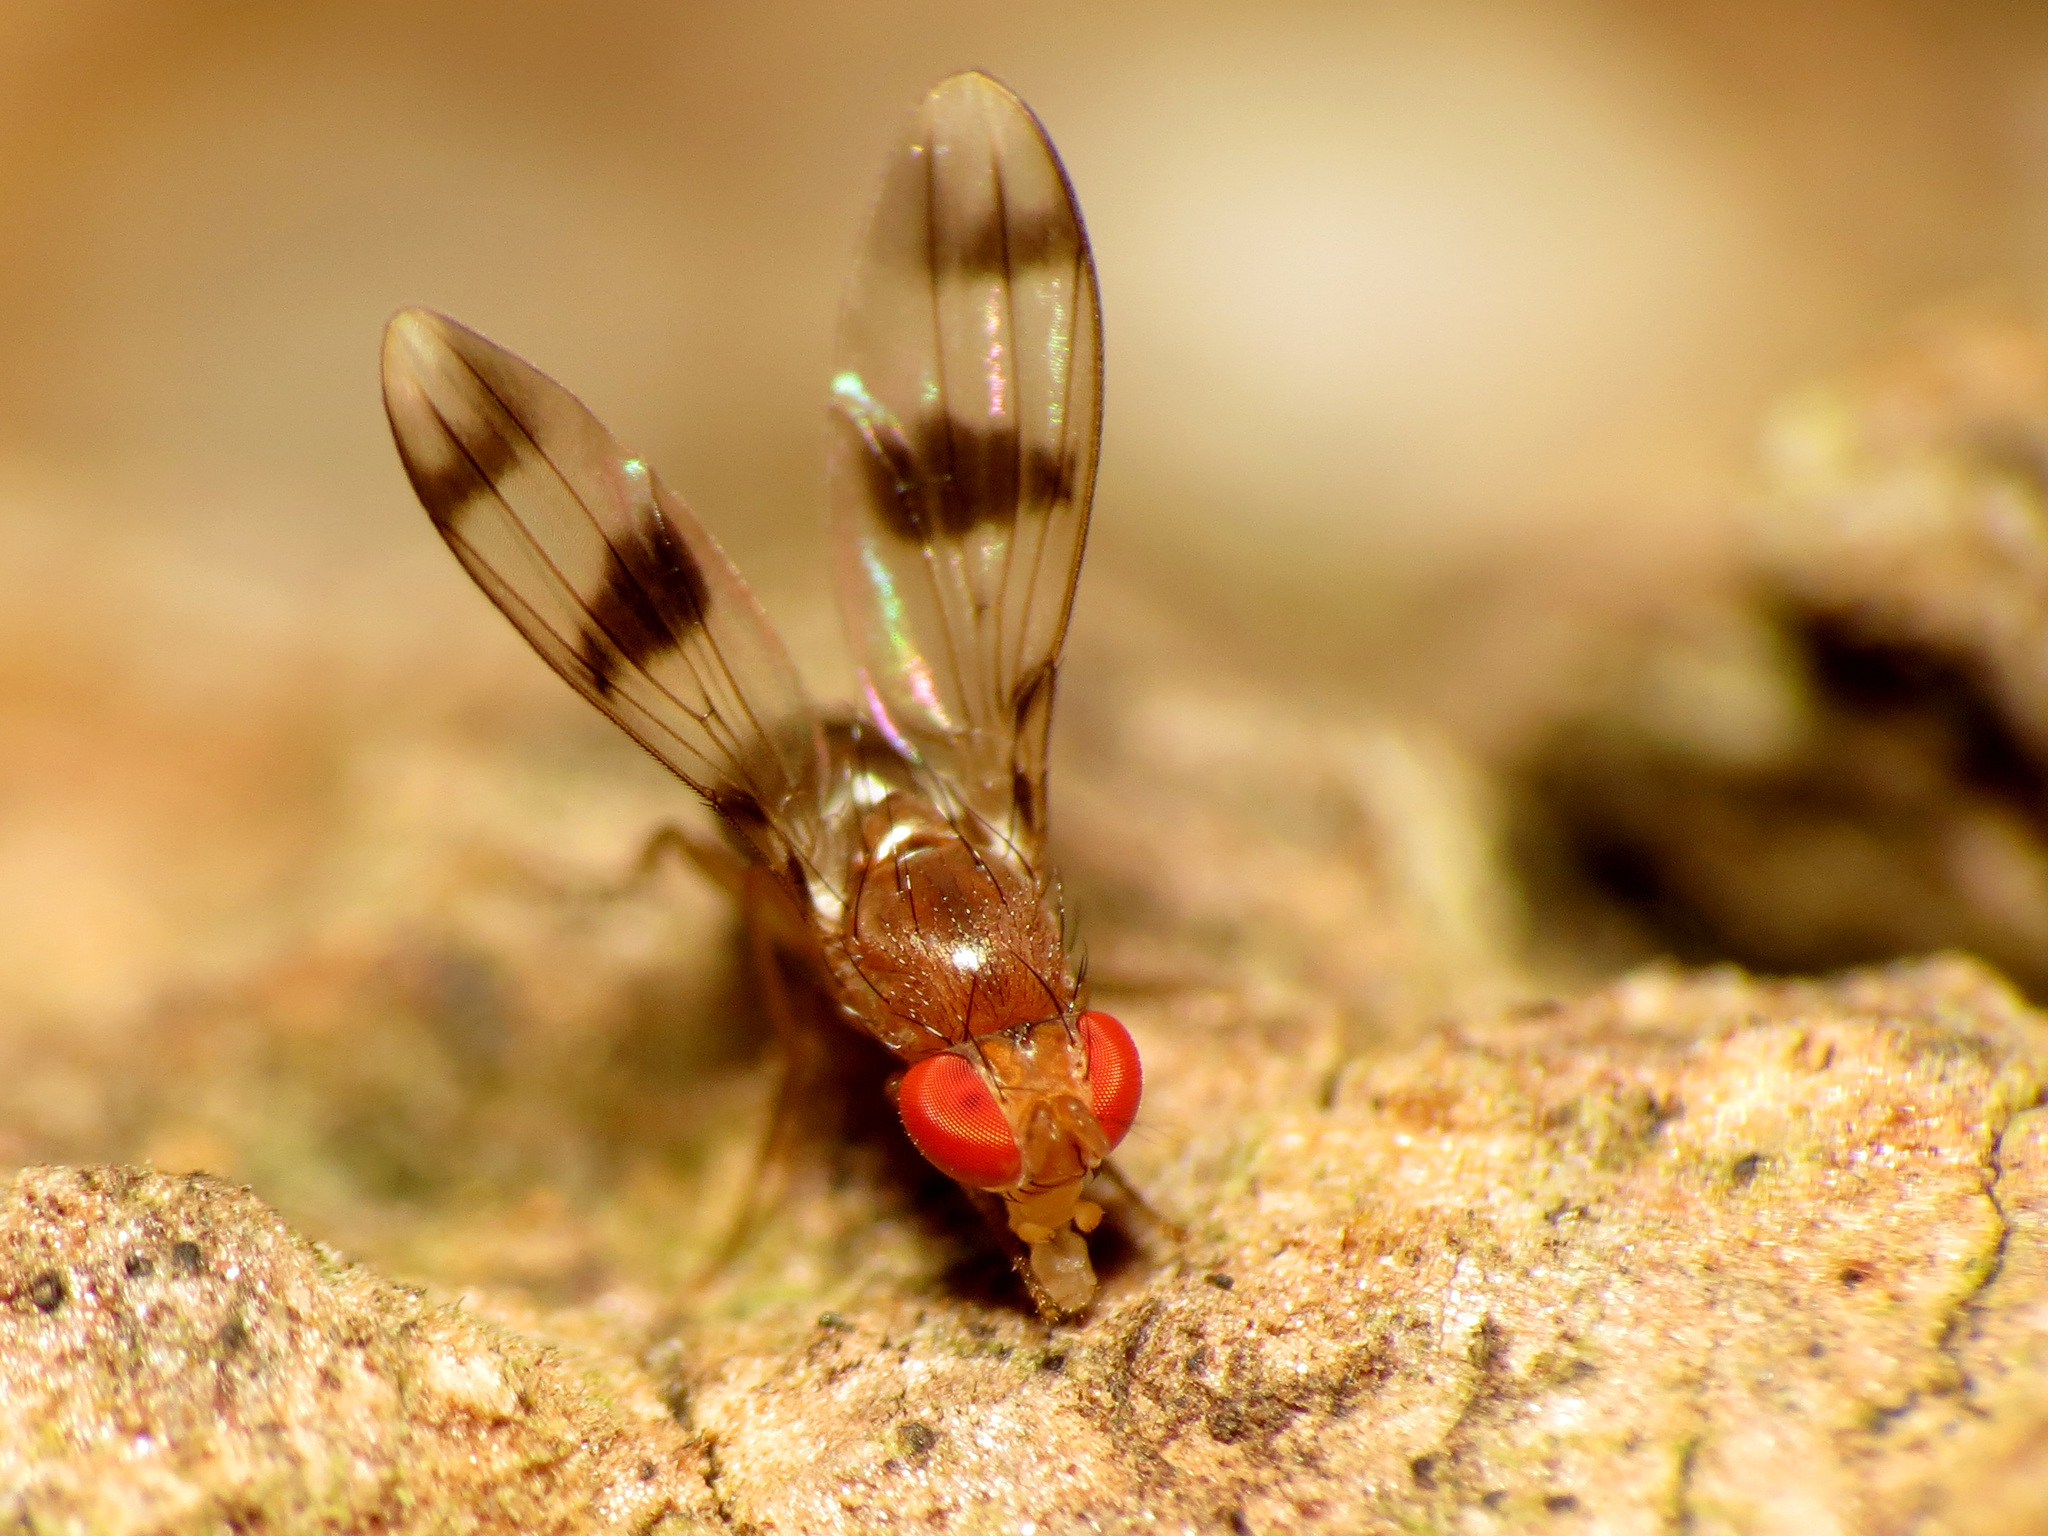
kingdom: Animalia
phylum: Arthropoda
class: Insecta
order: Diptera
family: Drosophilidae
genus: Chymomyza
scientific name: Chymomyza amoena
